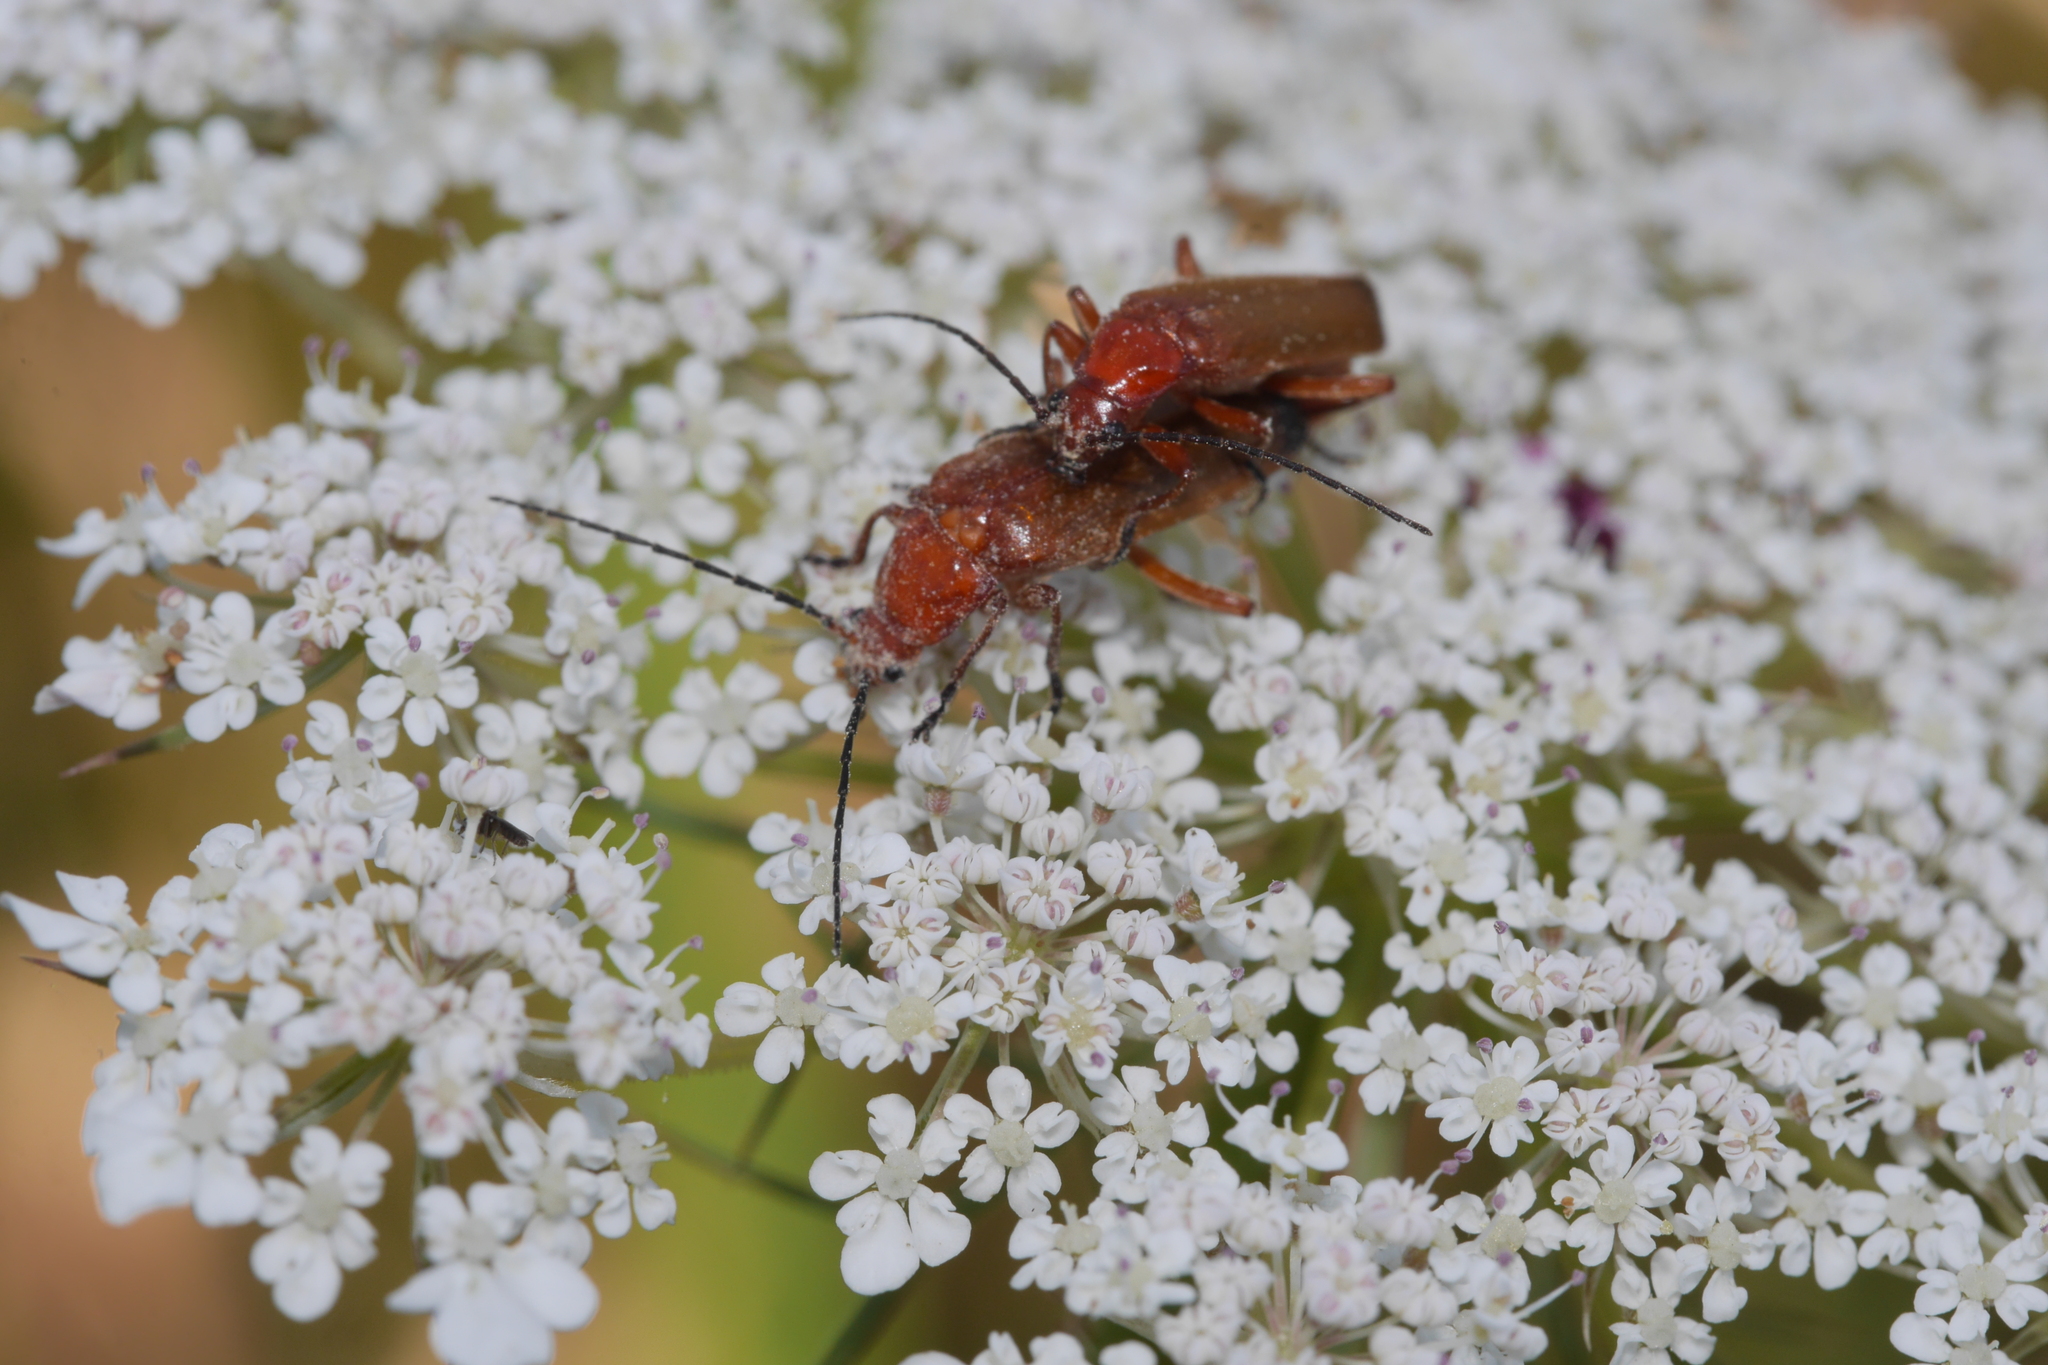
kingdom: Animalia
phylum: Arthropoda
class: Insecta
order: Coleoptera
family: Cantharidae
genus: Rhagonycha
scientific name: Rhagonycha fulva
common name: Common red soldier beetle
